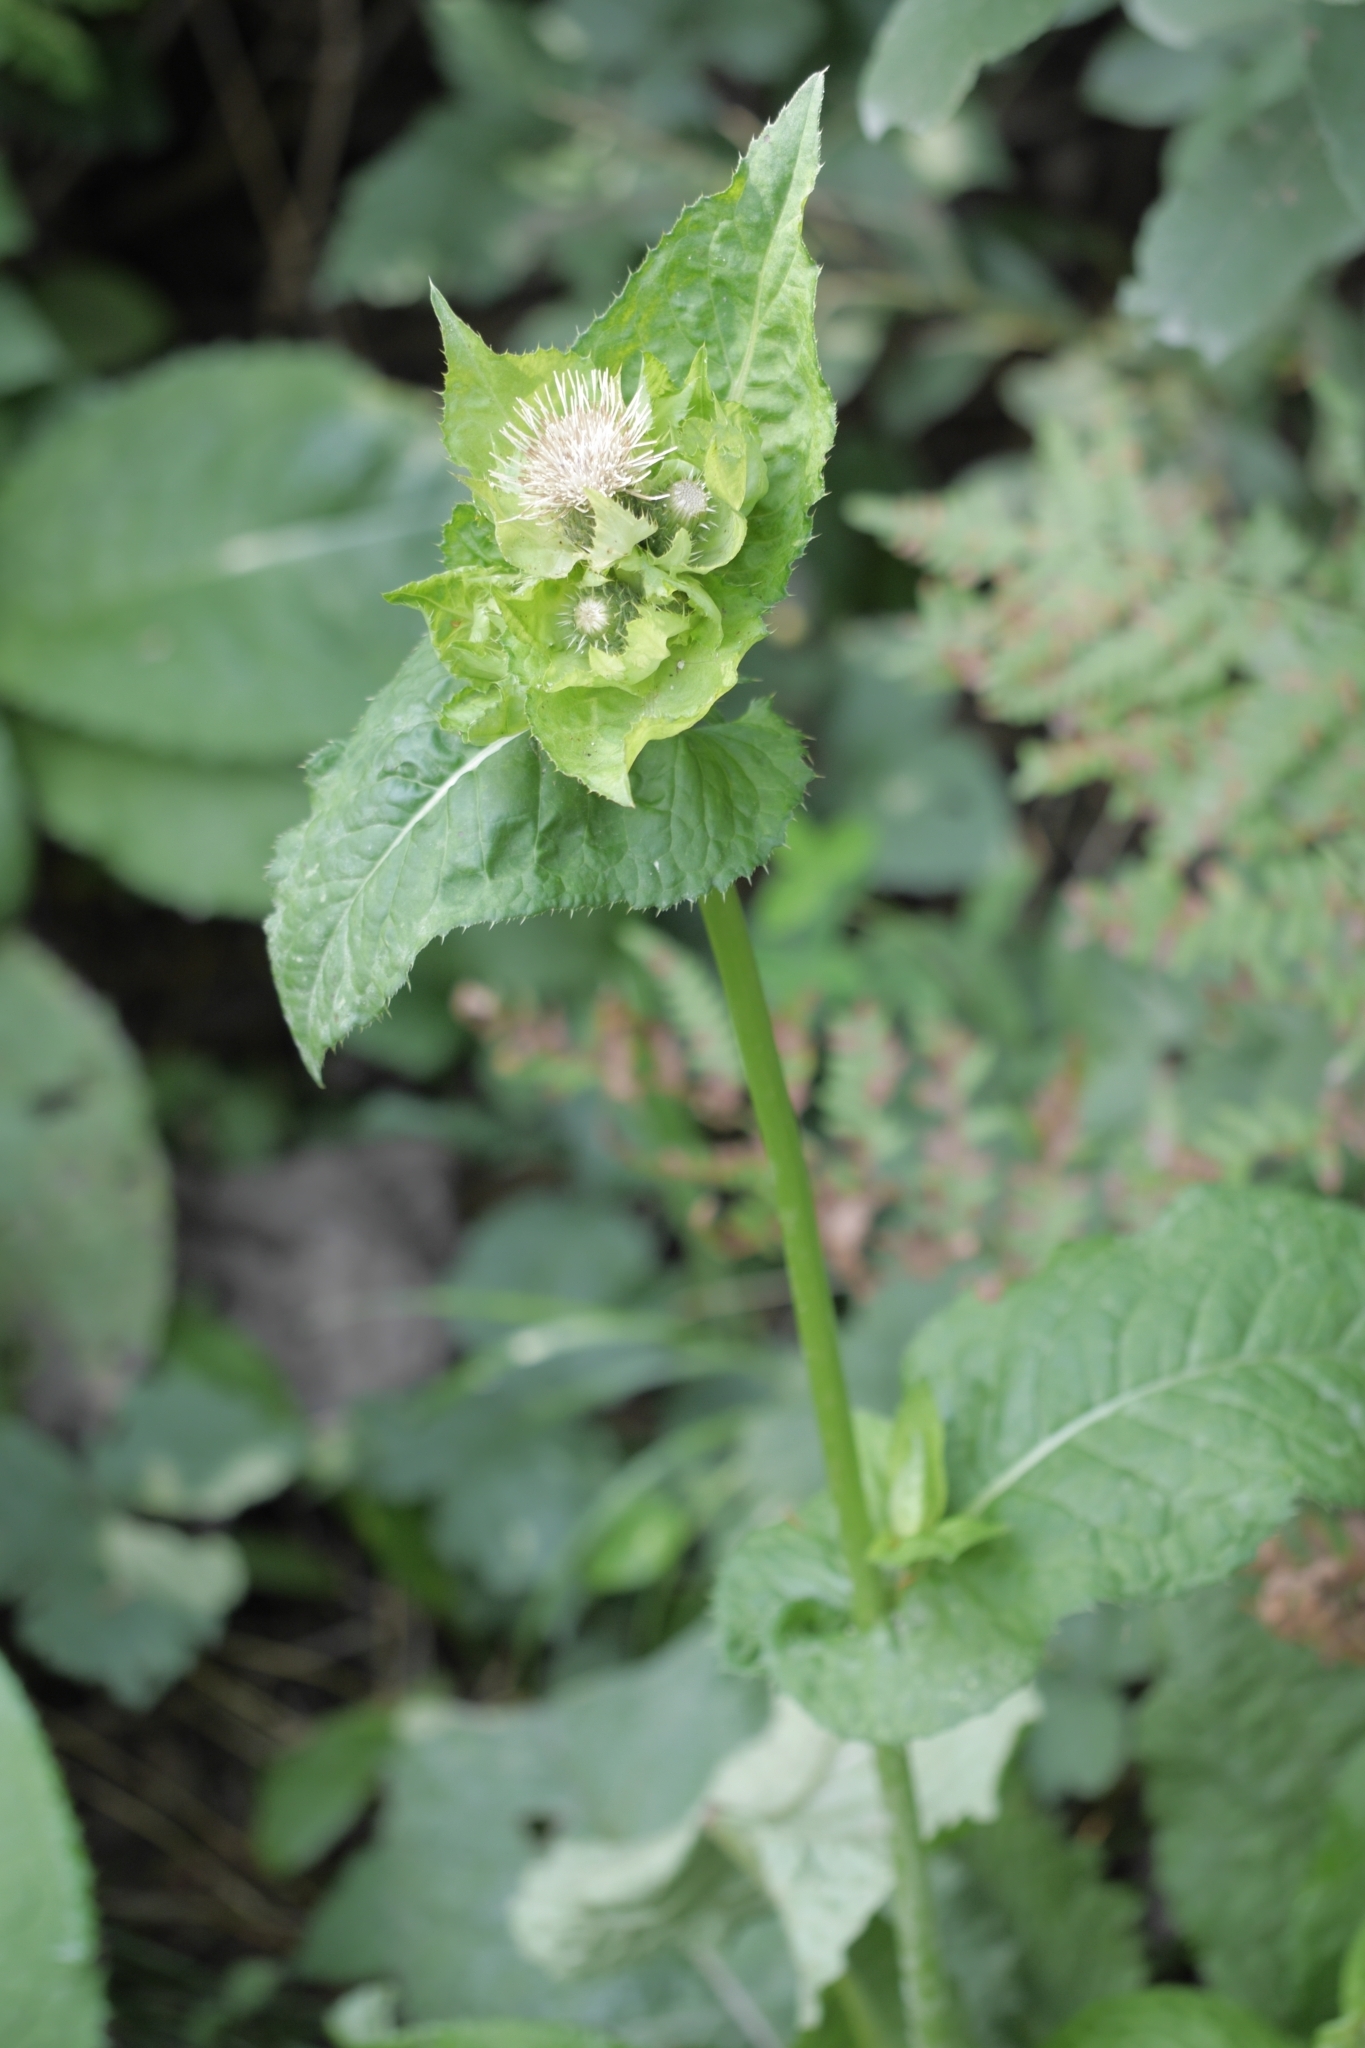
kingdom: Plantae
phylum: Tracheophyta
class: Magnoliopsida
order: Asterales
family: Asteraceae
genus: Cirsium
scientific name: Cirsium oleraceum
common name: Cabbage thistle
